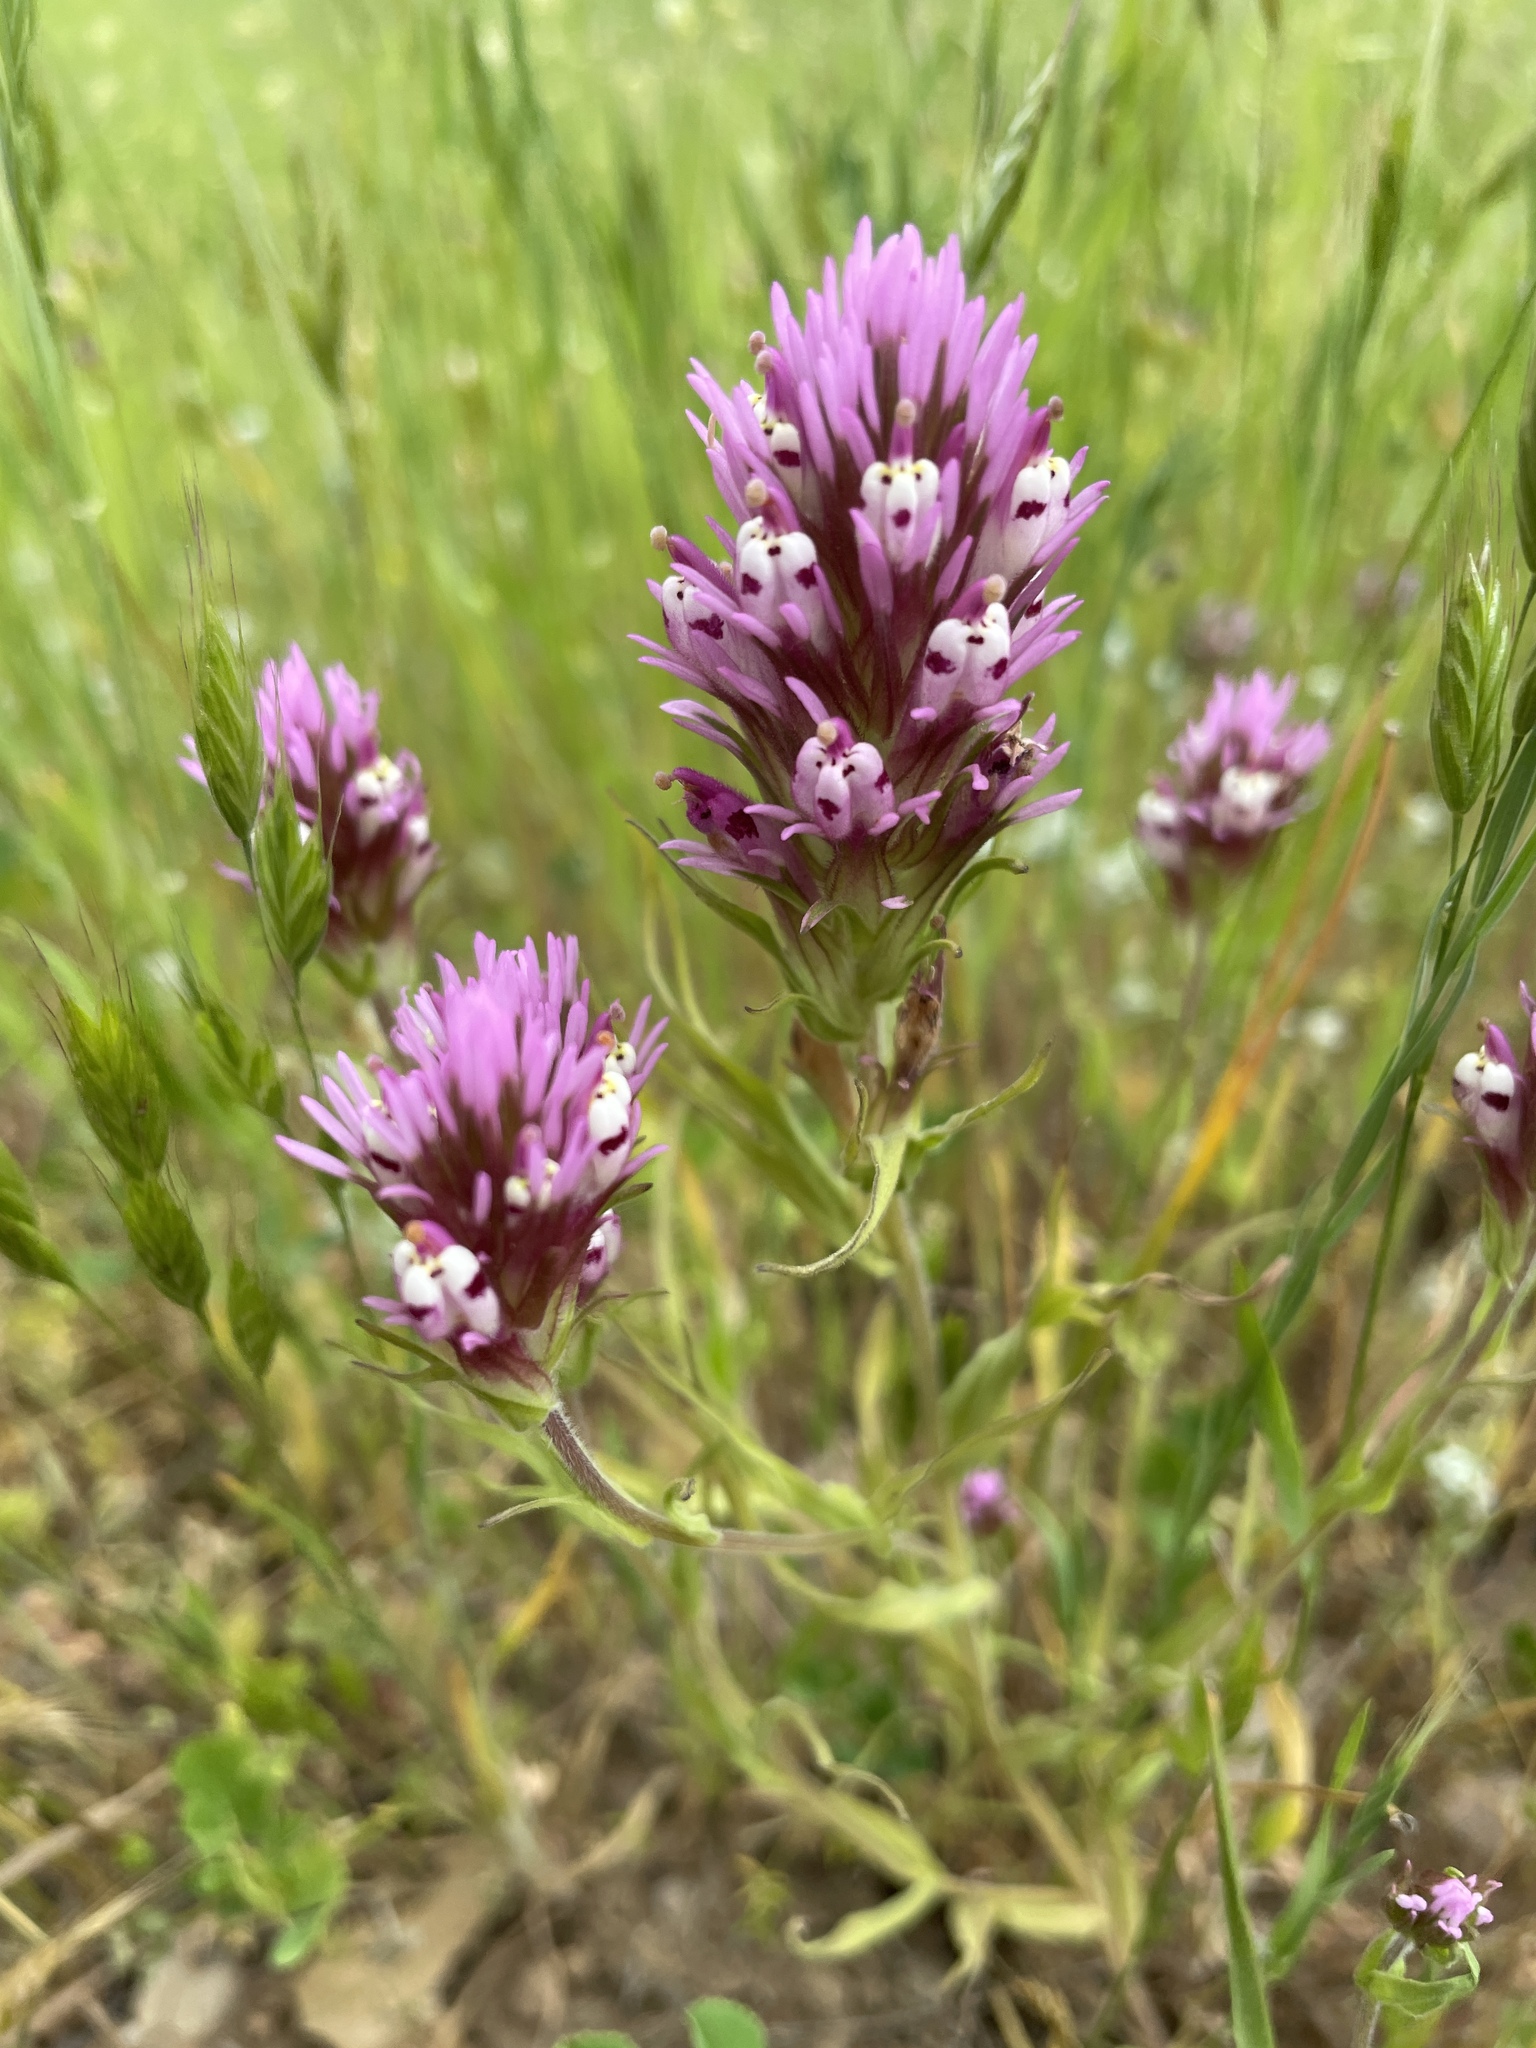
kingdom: Plantae
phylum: Tracheophyta
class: Magnoliopsida
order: Lamiales
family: Orobanchaceae
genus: Castilleja
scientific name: Castilleja densiflora
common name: Dense-flower indian paintbrush
